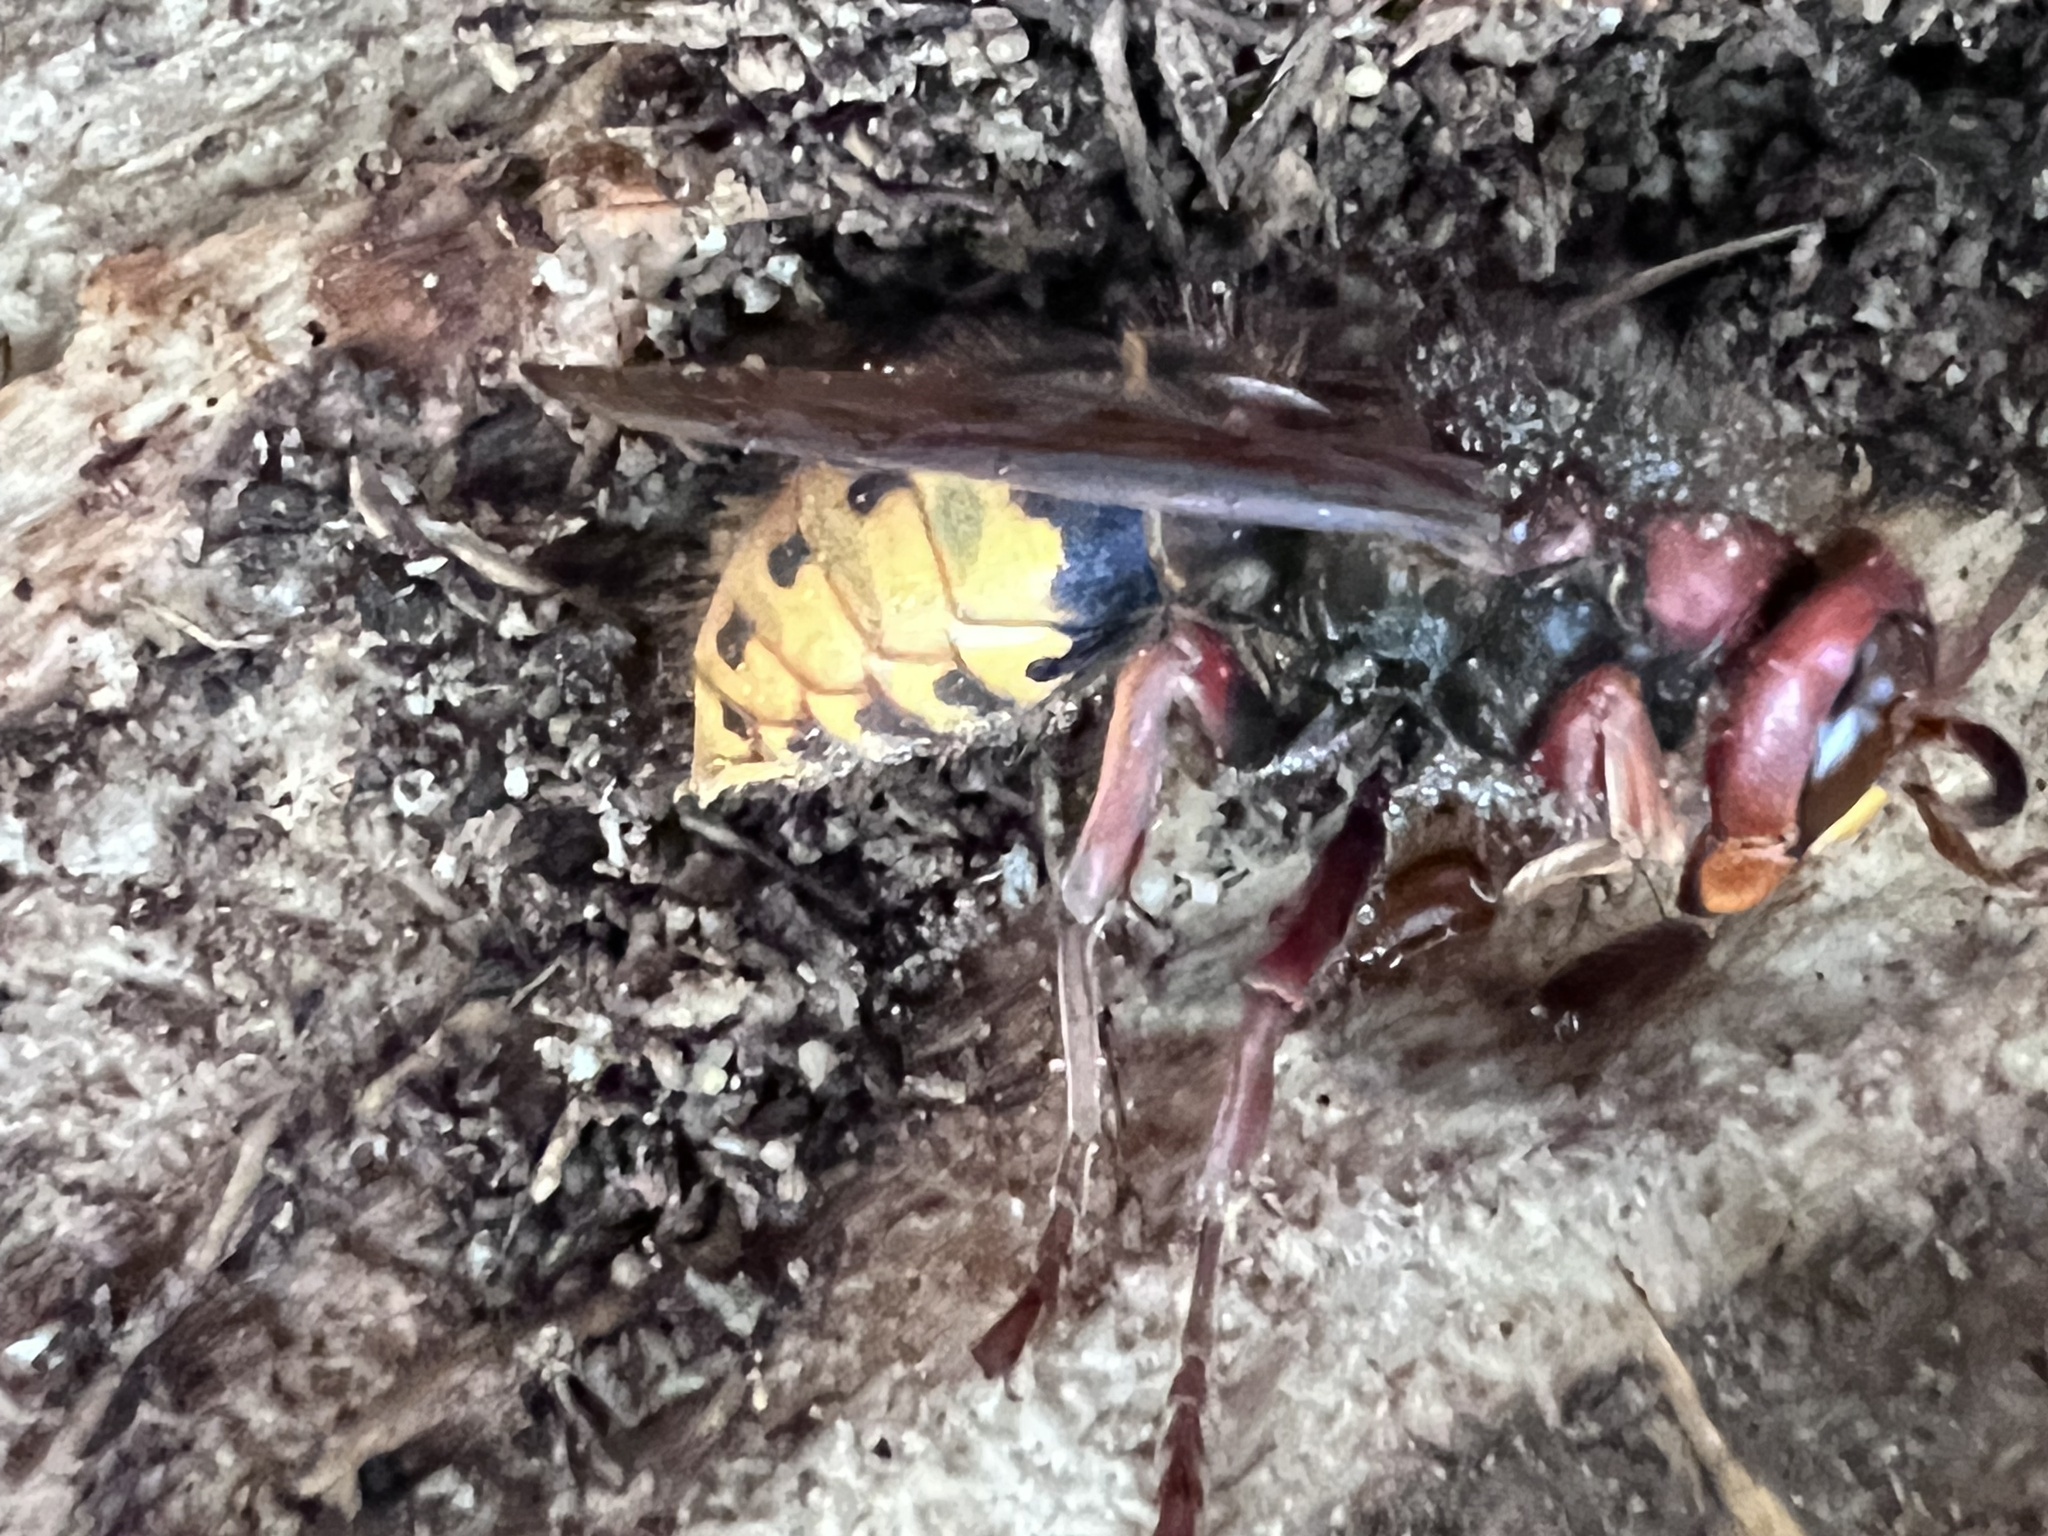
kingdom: Animalia
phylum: Arthropoda
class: Insecta
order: Hymenoptera
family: Vespidae
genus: Vespa
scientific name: Vespa crabro
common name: Hornet
